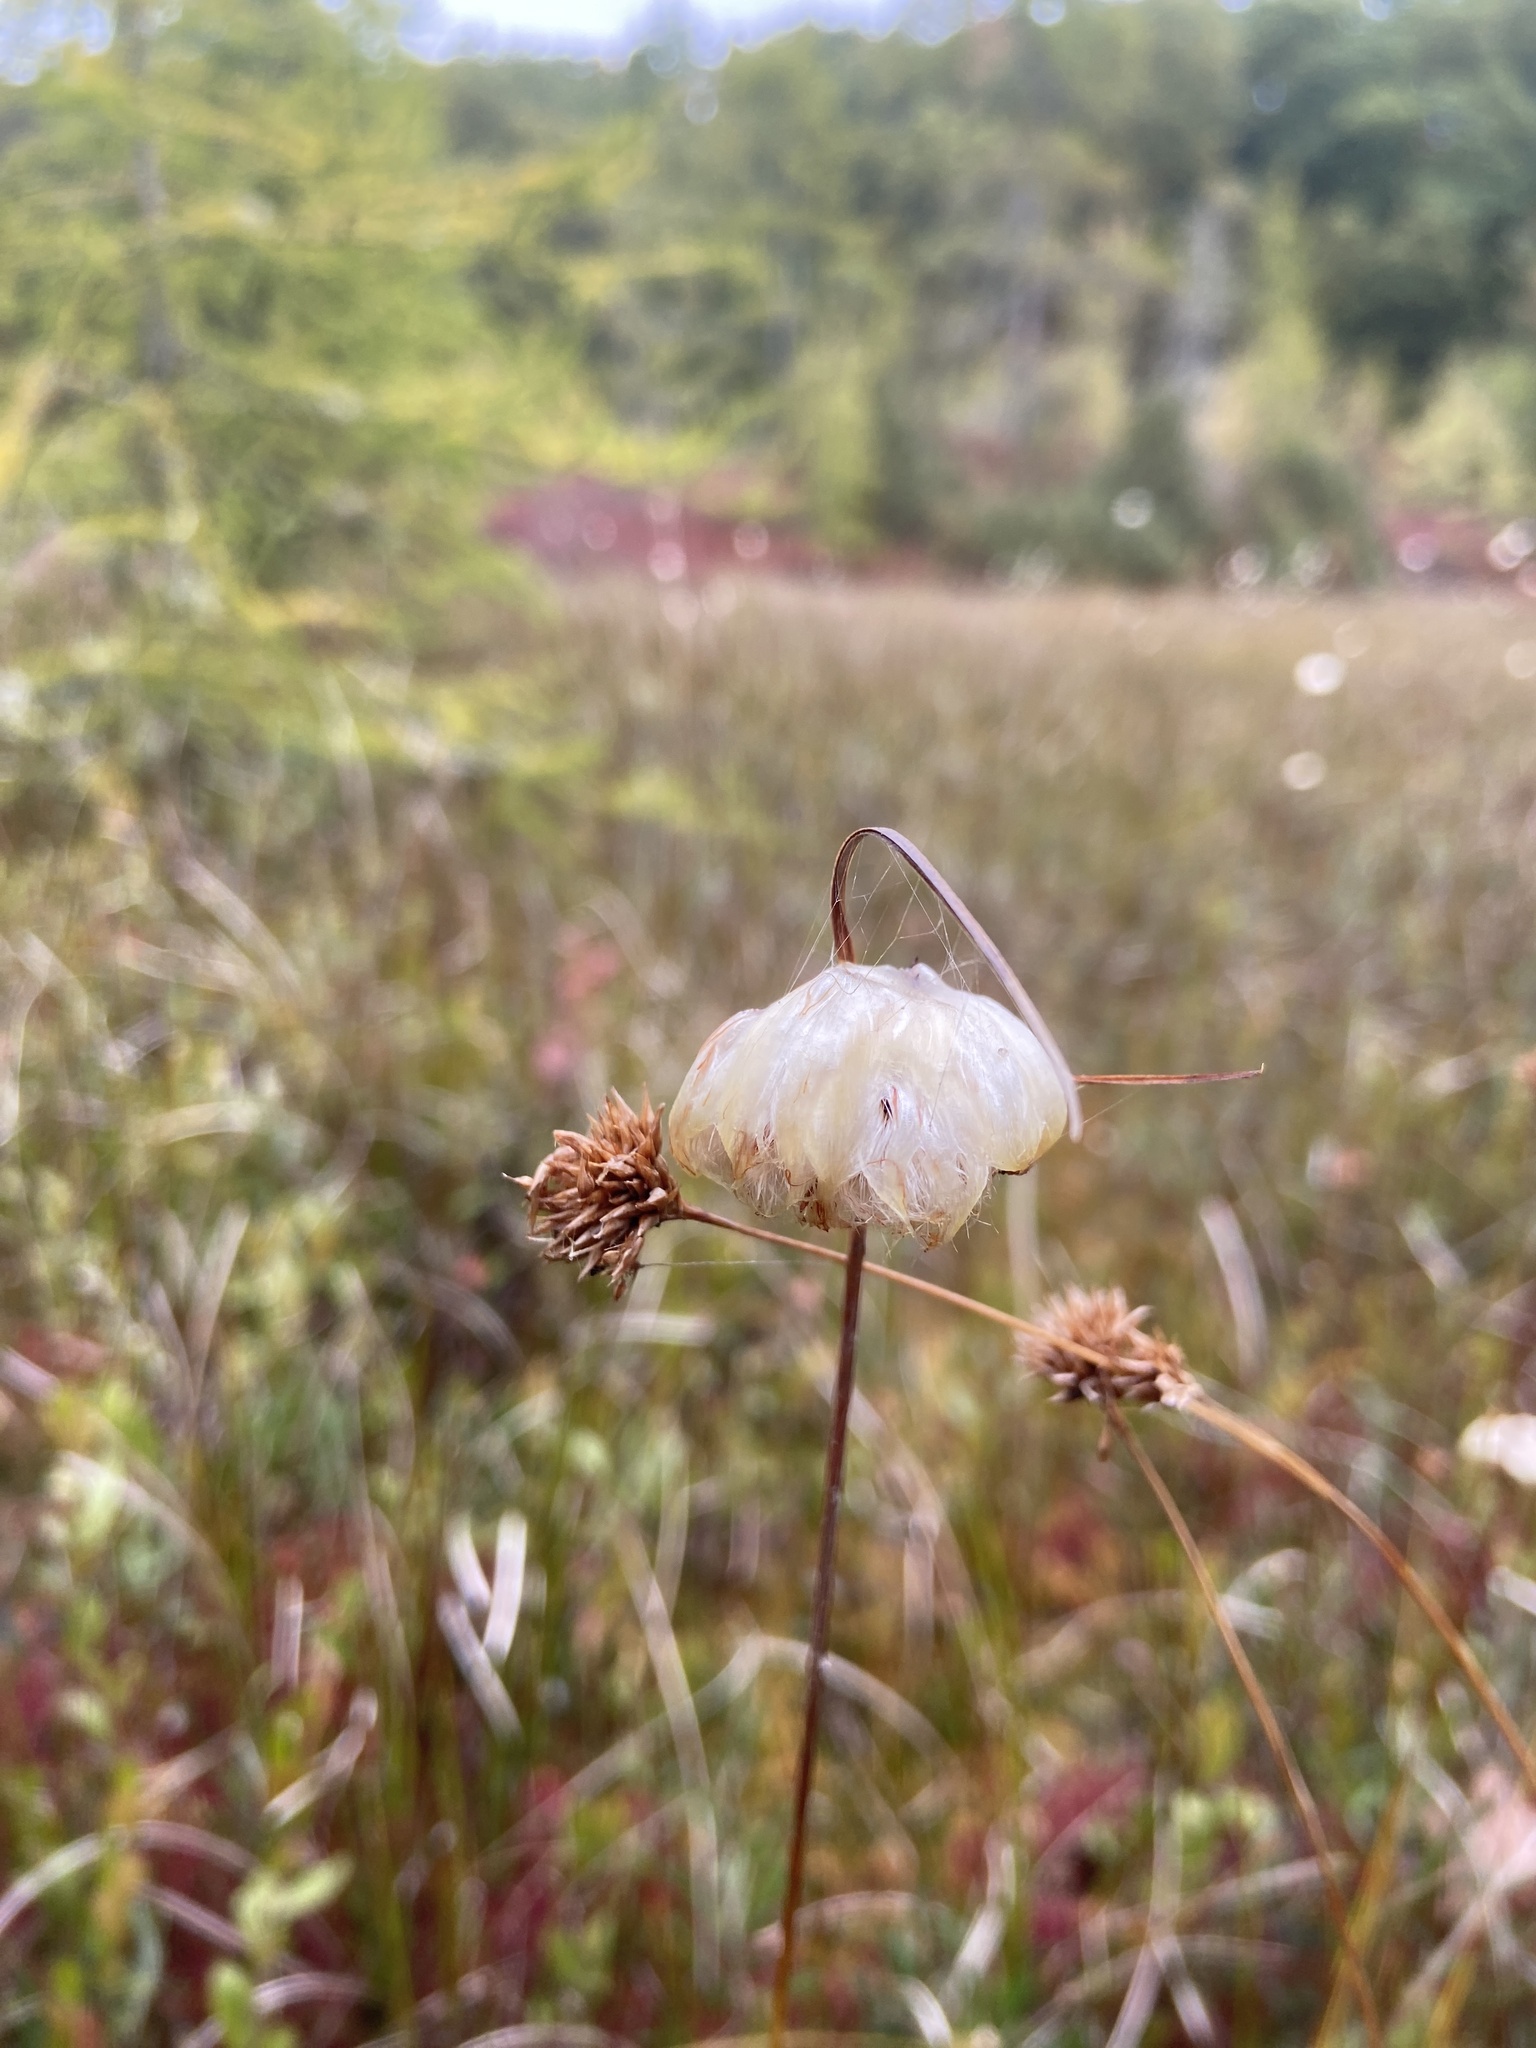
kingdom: Plantae
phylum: Tracheophyta
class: Liliopsida
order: Poales
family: Cyperaceae
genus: Eriophorum
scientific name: Eriophorum virginicum
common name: Tawny cottongrass
